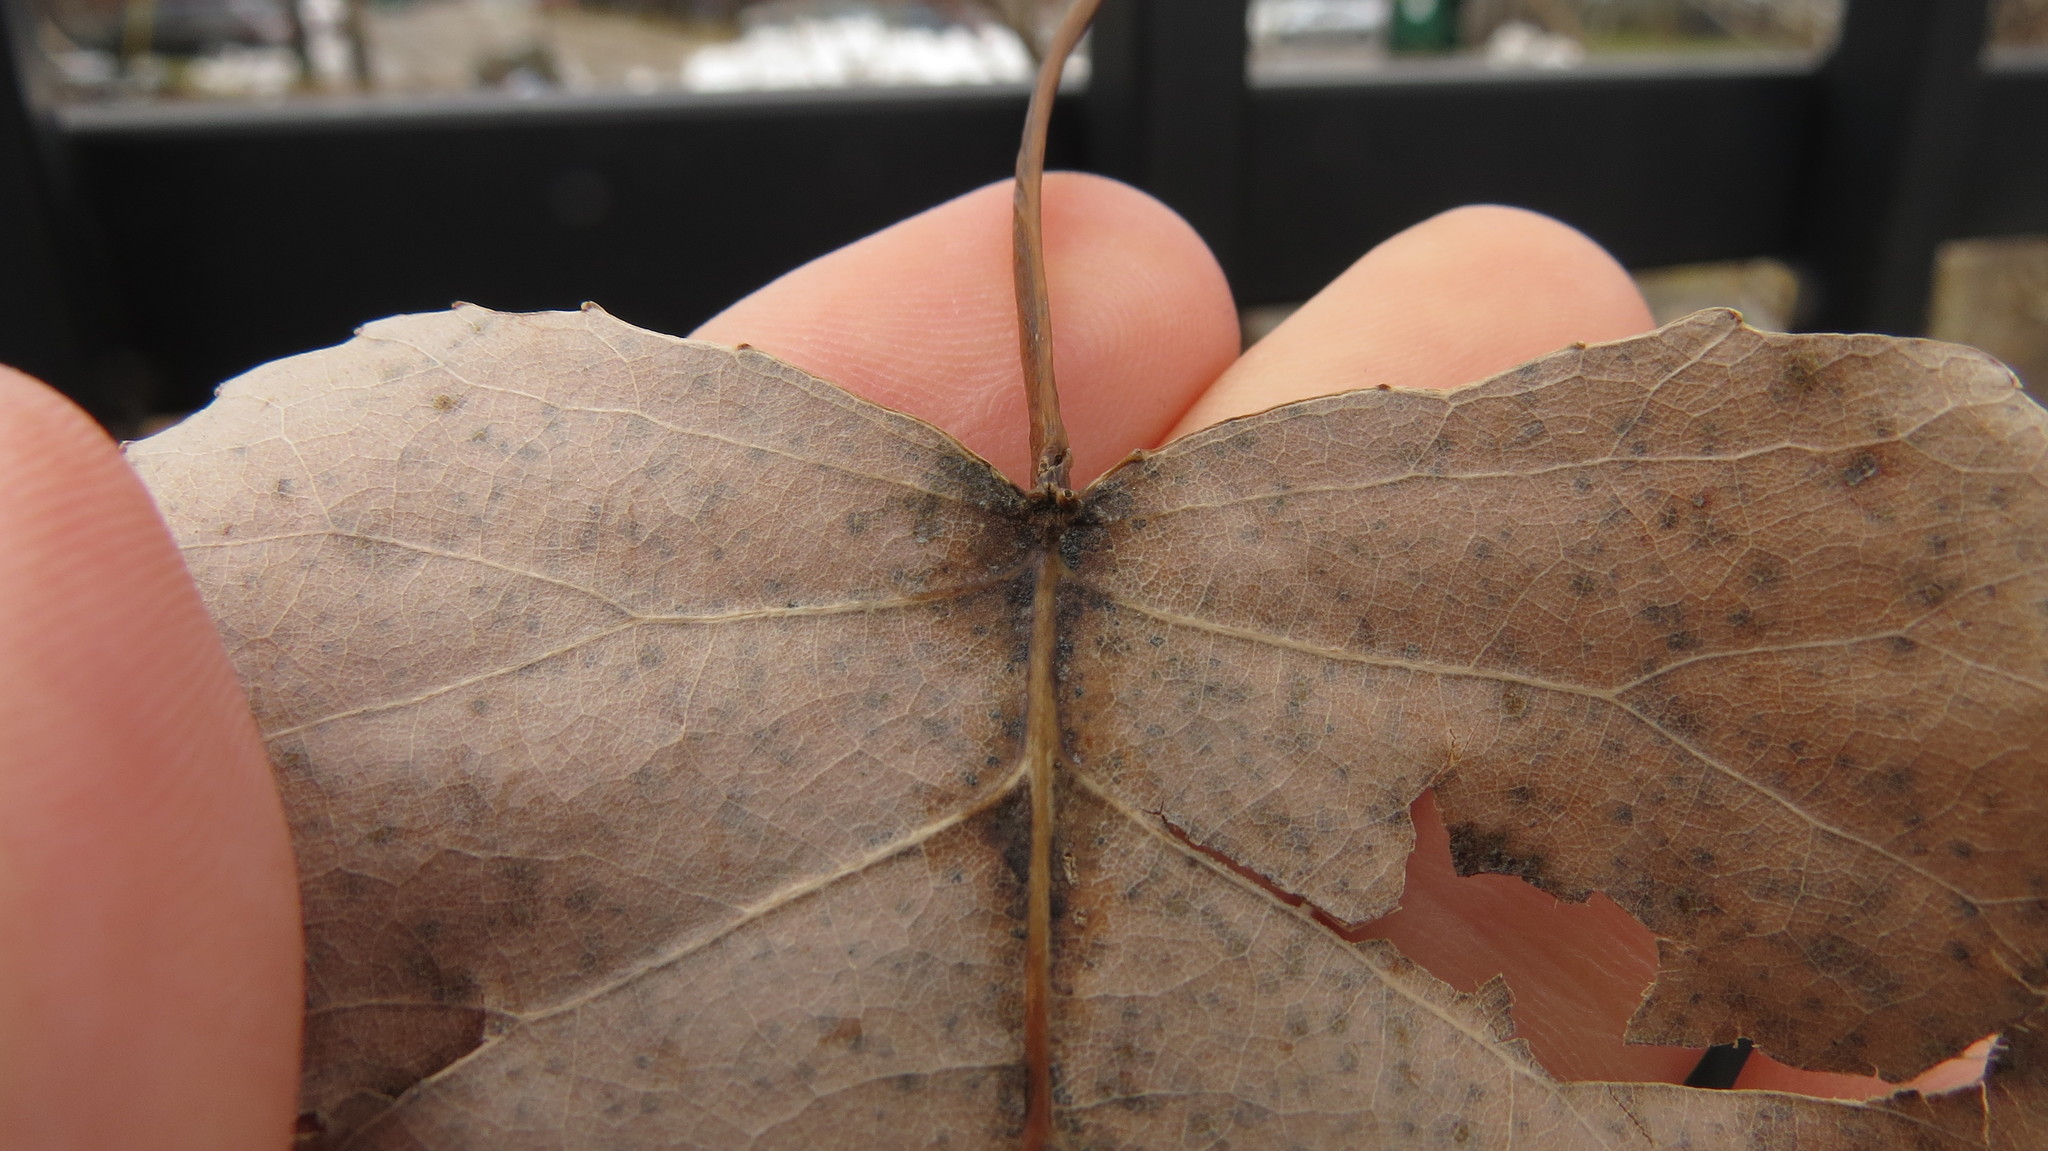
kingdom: Plantae
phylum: Tracheophyta
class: Magnoliopsida
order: Malpighiales
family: Salicaceae
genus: Populus
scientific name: Populus deltoides
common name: Eastern cottonwood
